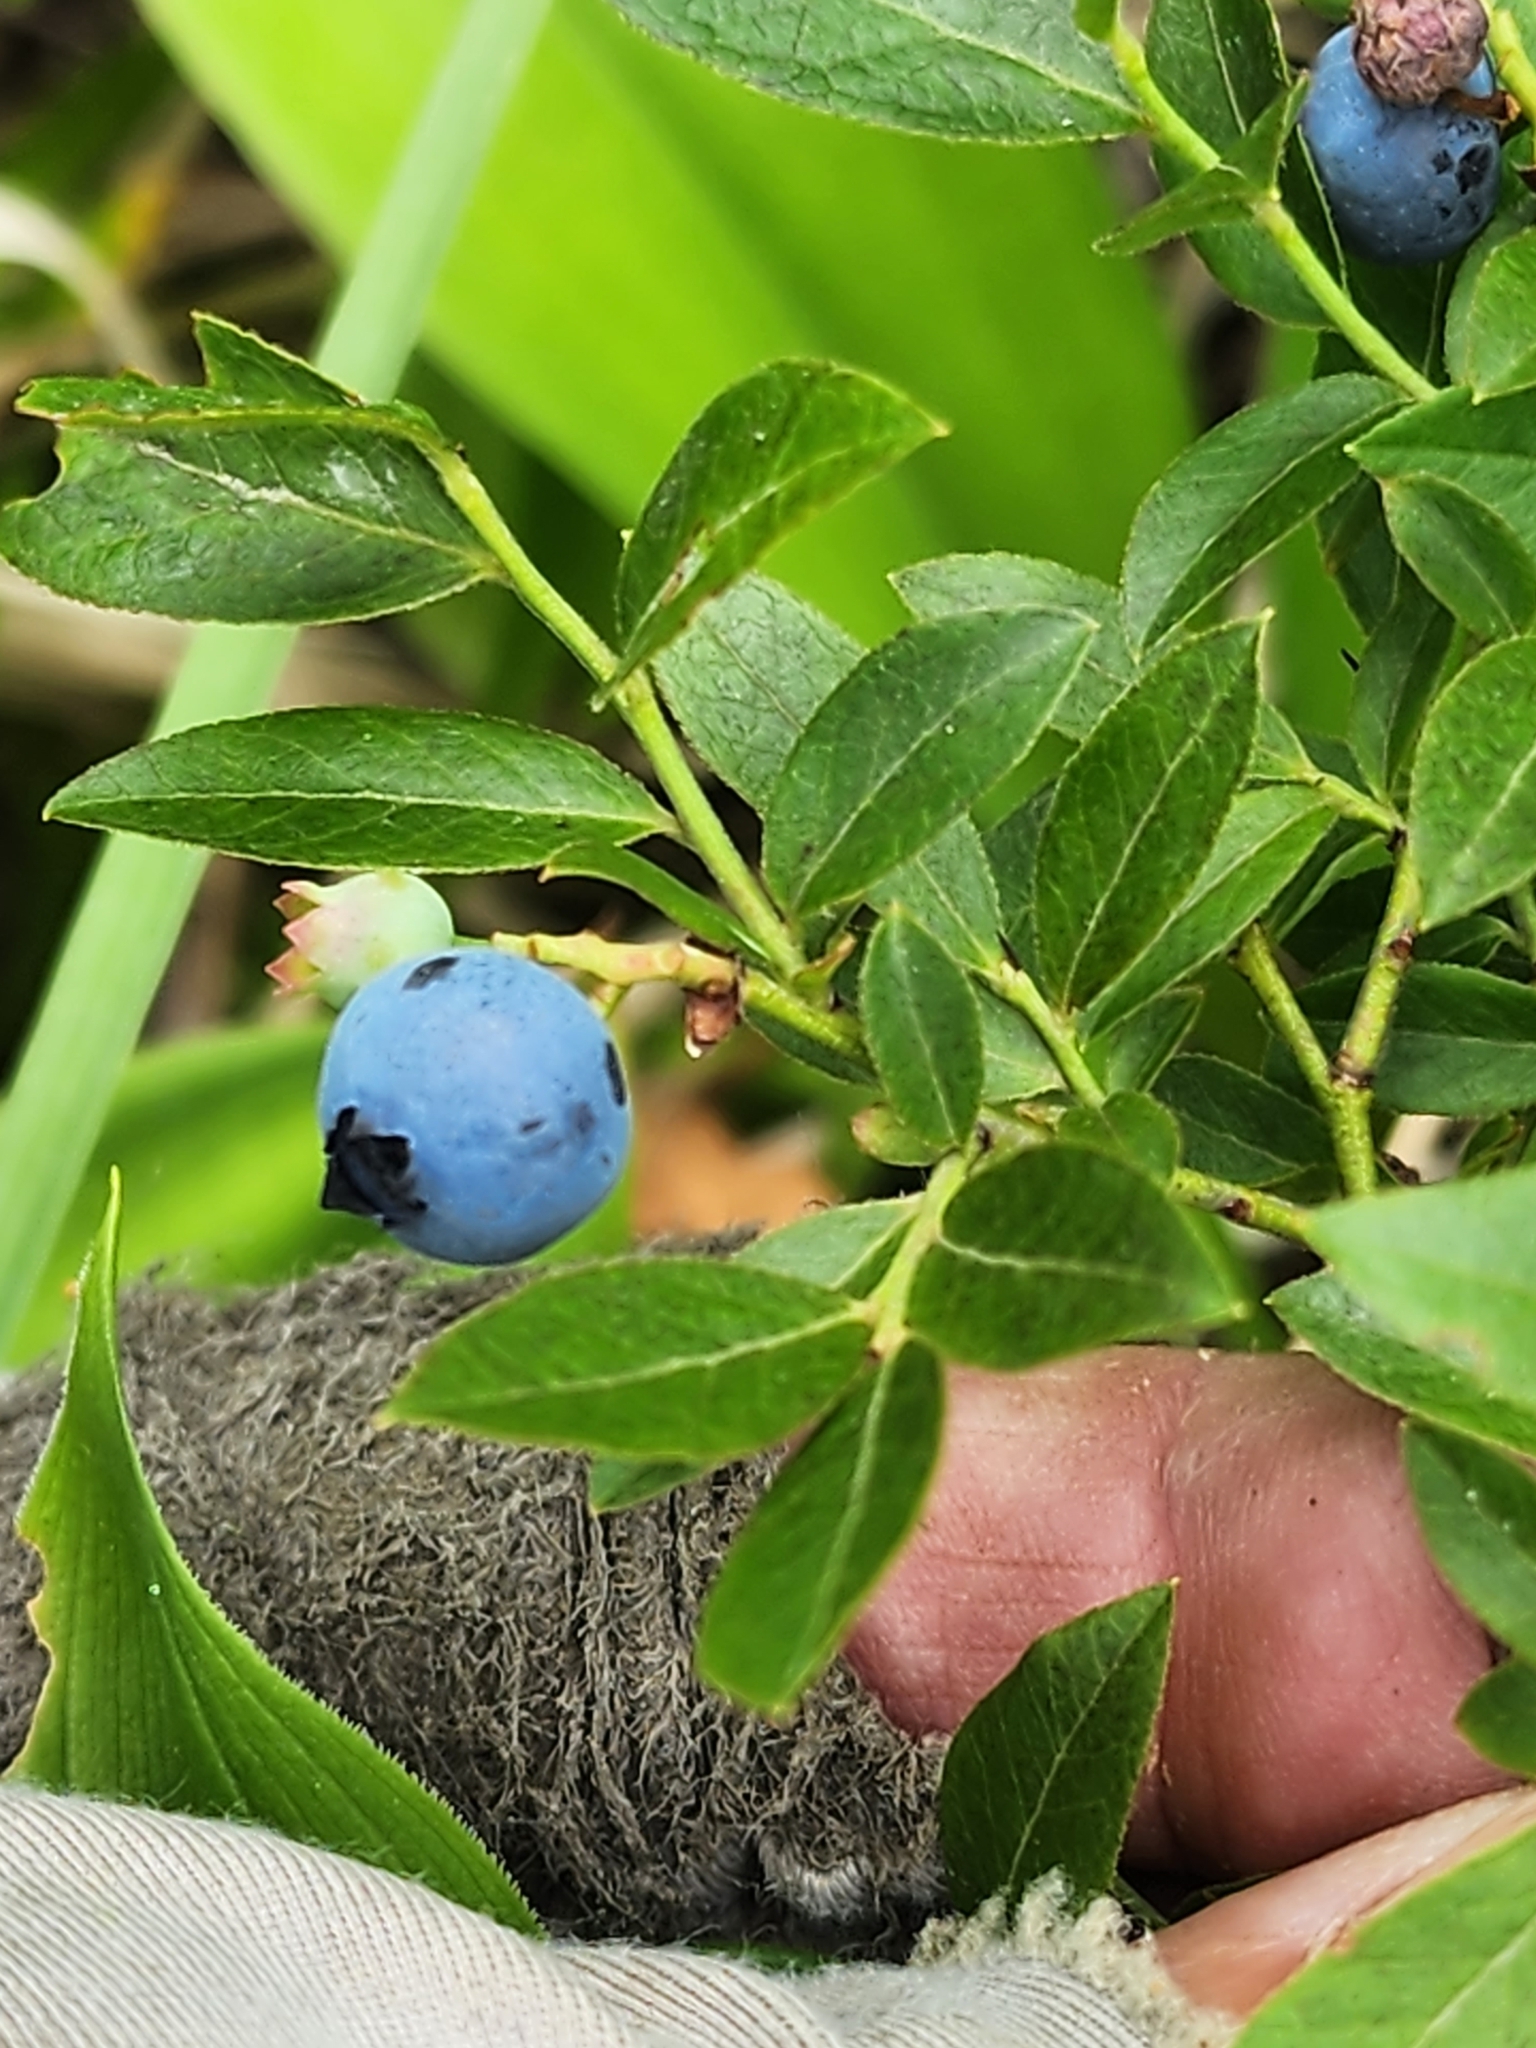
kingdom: Plantae
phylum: Tracheophyta
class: Magnoliopsida
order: Ericales
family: Ericaceae
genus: Vaccinium
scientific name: Vaccinium angustifolium
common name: Early lowbush blueberry
